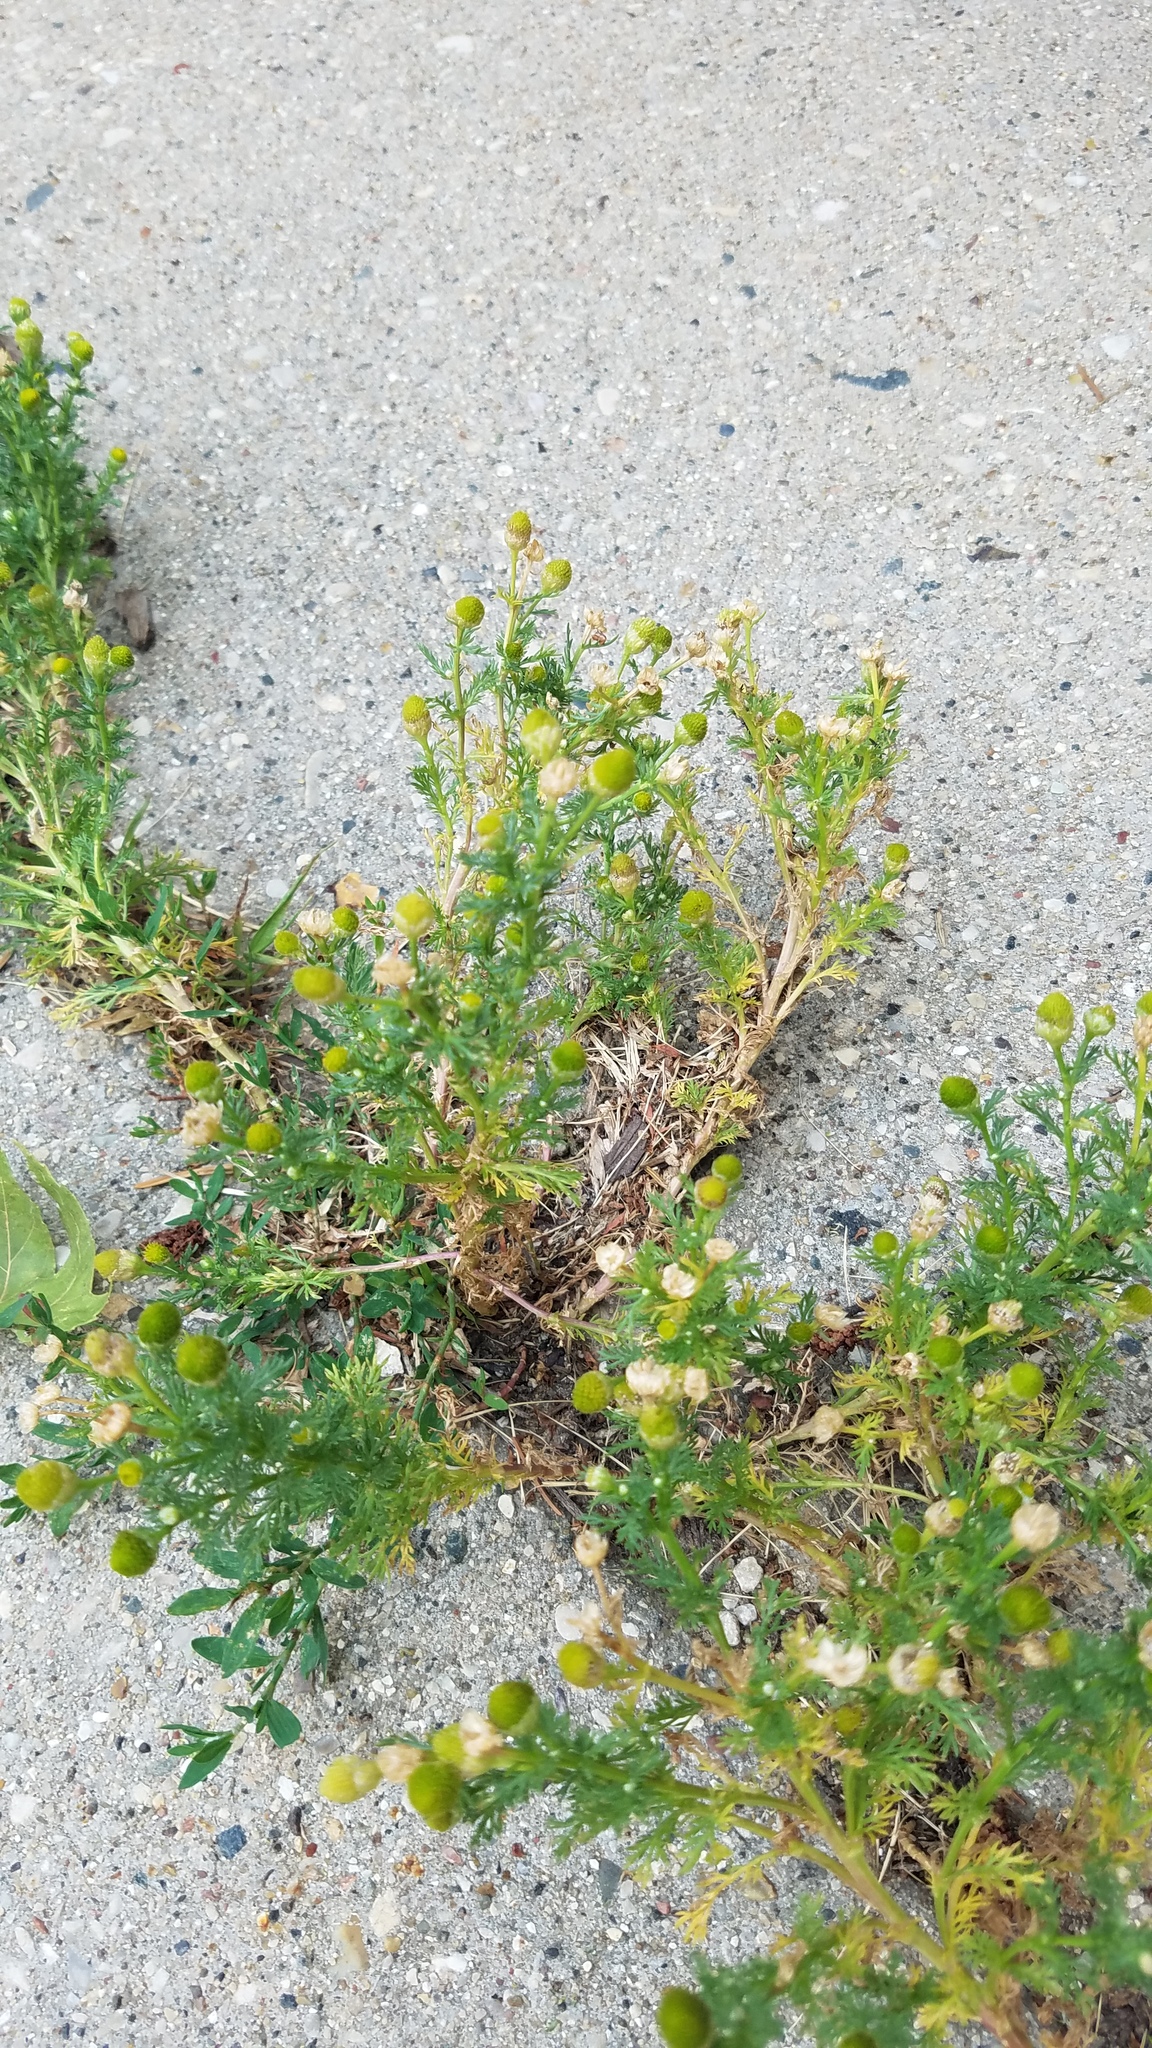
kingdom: Plantae
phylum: Tracheophyta
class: Magnoliopsida
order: Asterales
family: Asteraceae
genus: Matricaria
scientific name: Matricaria discoidea
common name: Disc mayweed
